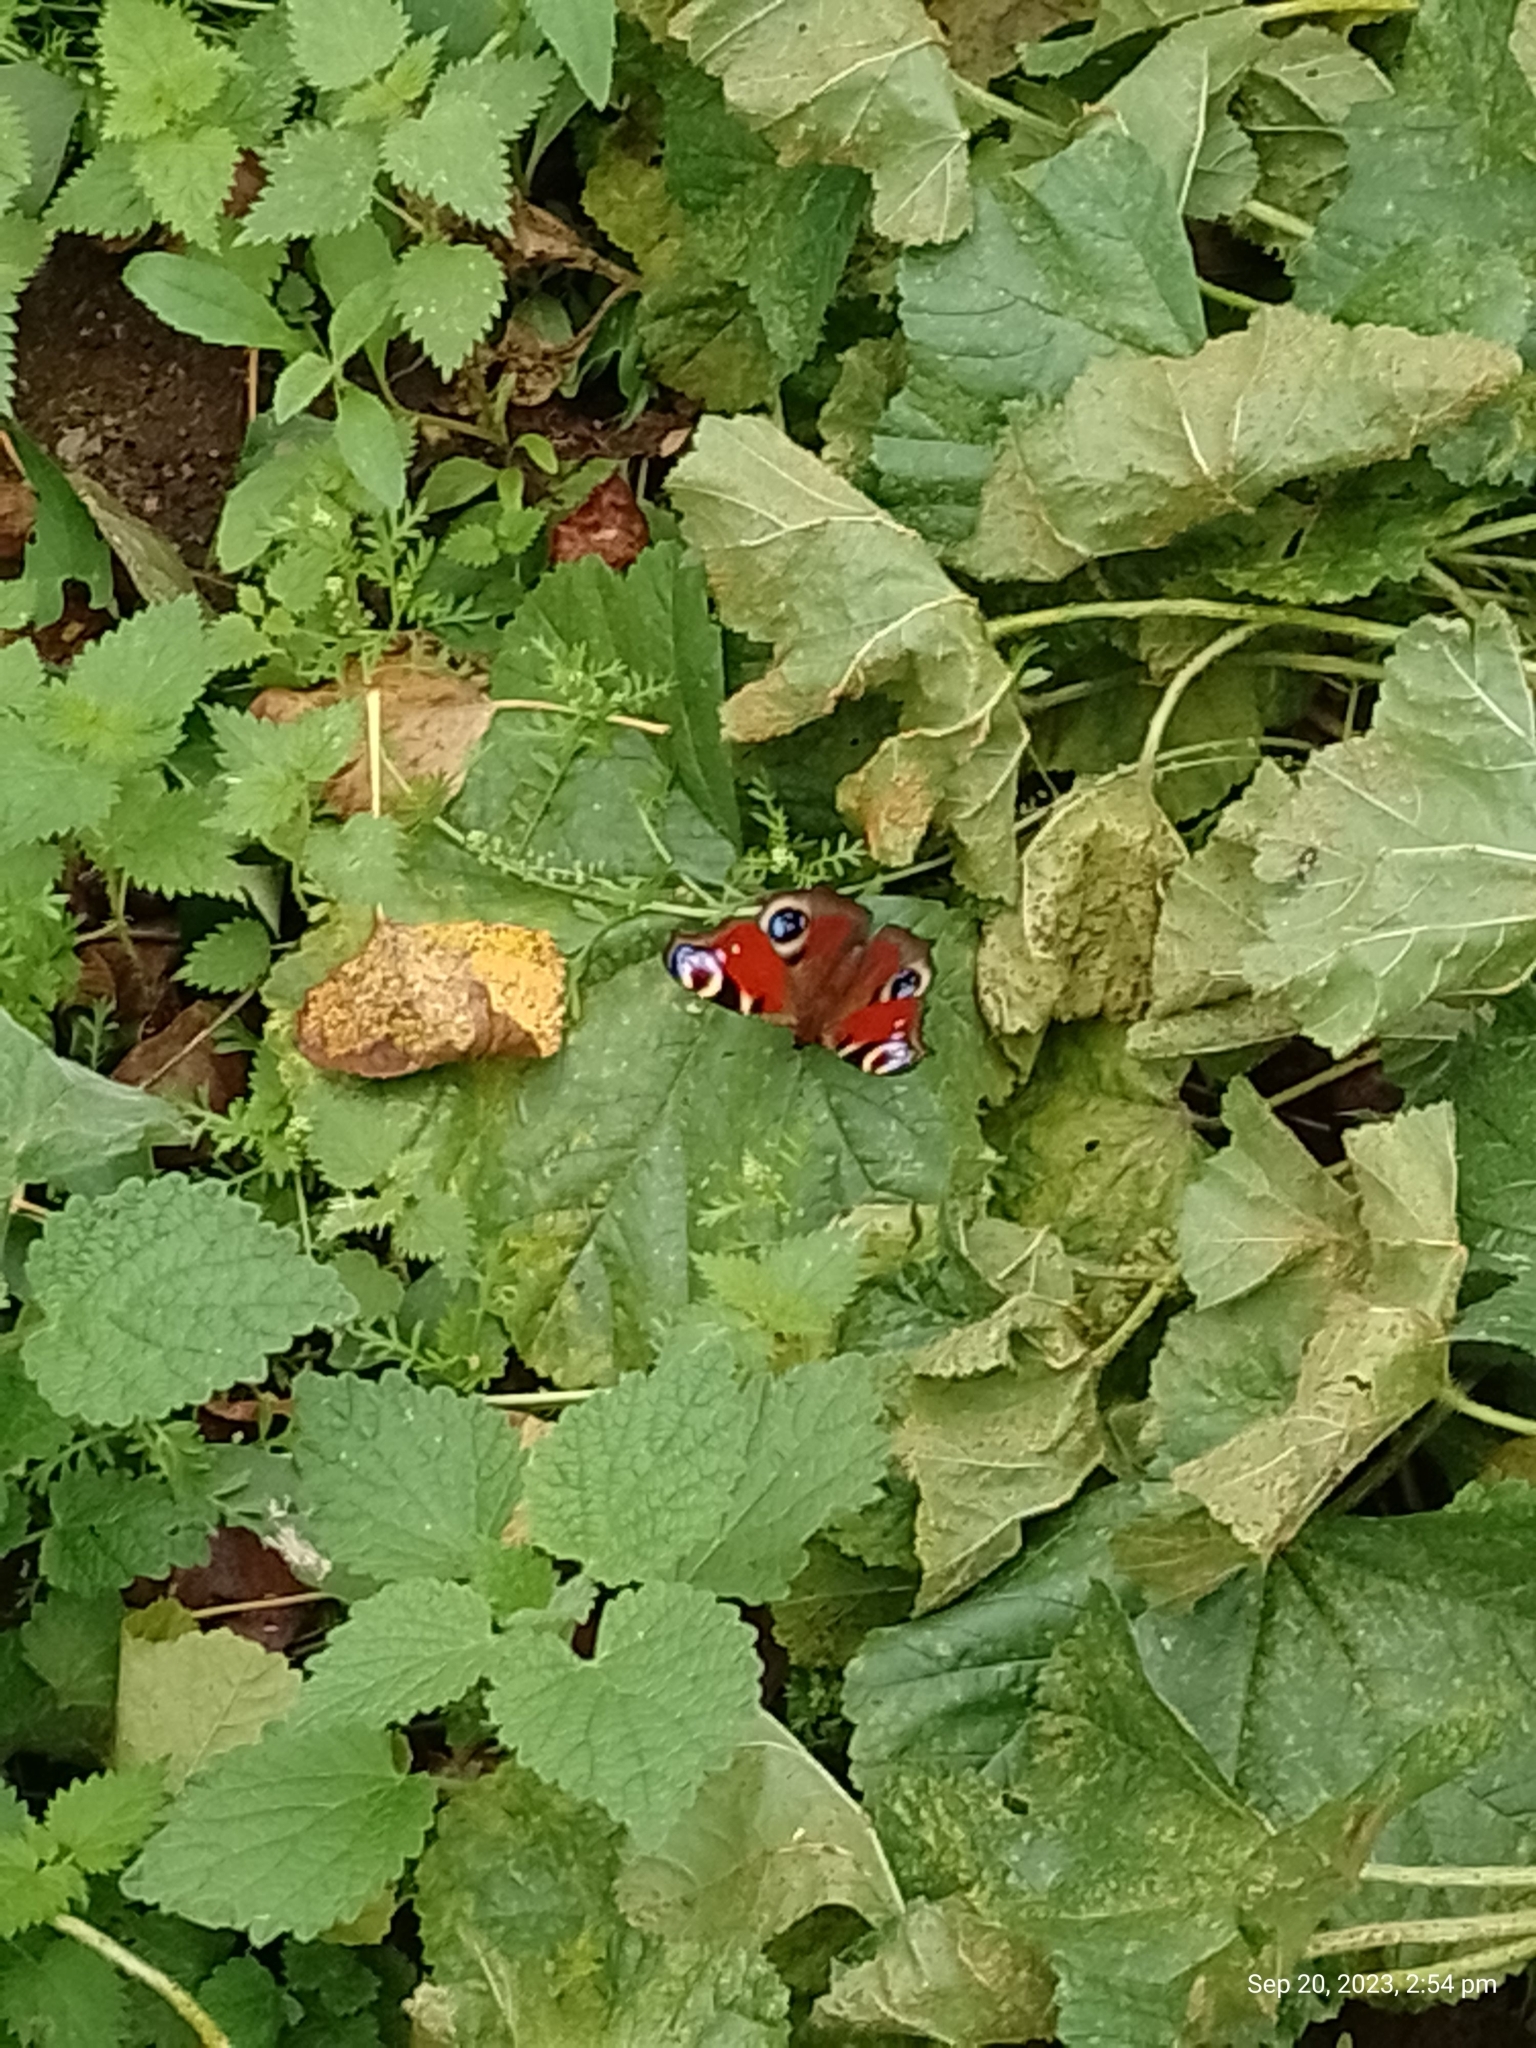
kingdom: Animalia
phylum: Arthropoda
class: Insecta
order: Lepidoptera
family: Nymphalidae
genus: Aglais
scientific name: Aglais io
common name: Peacock
